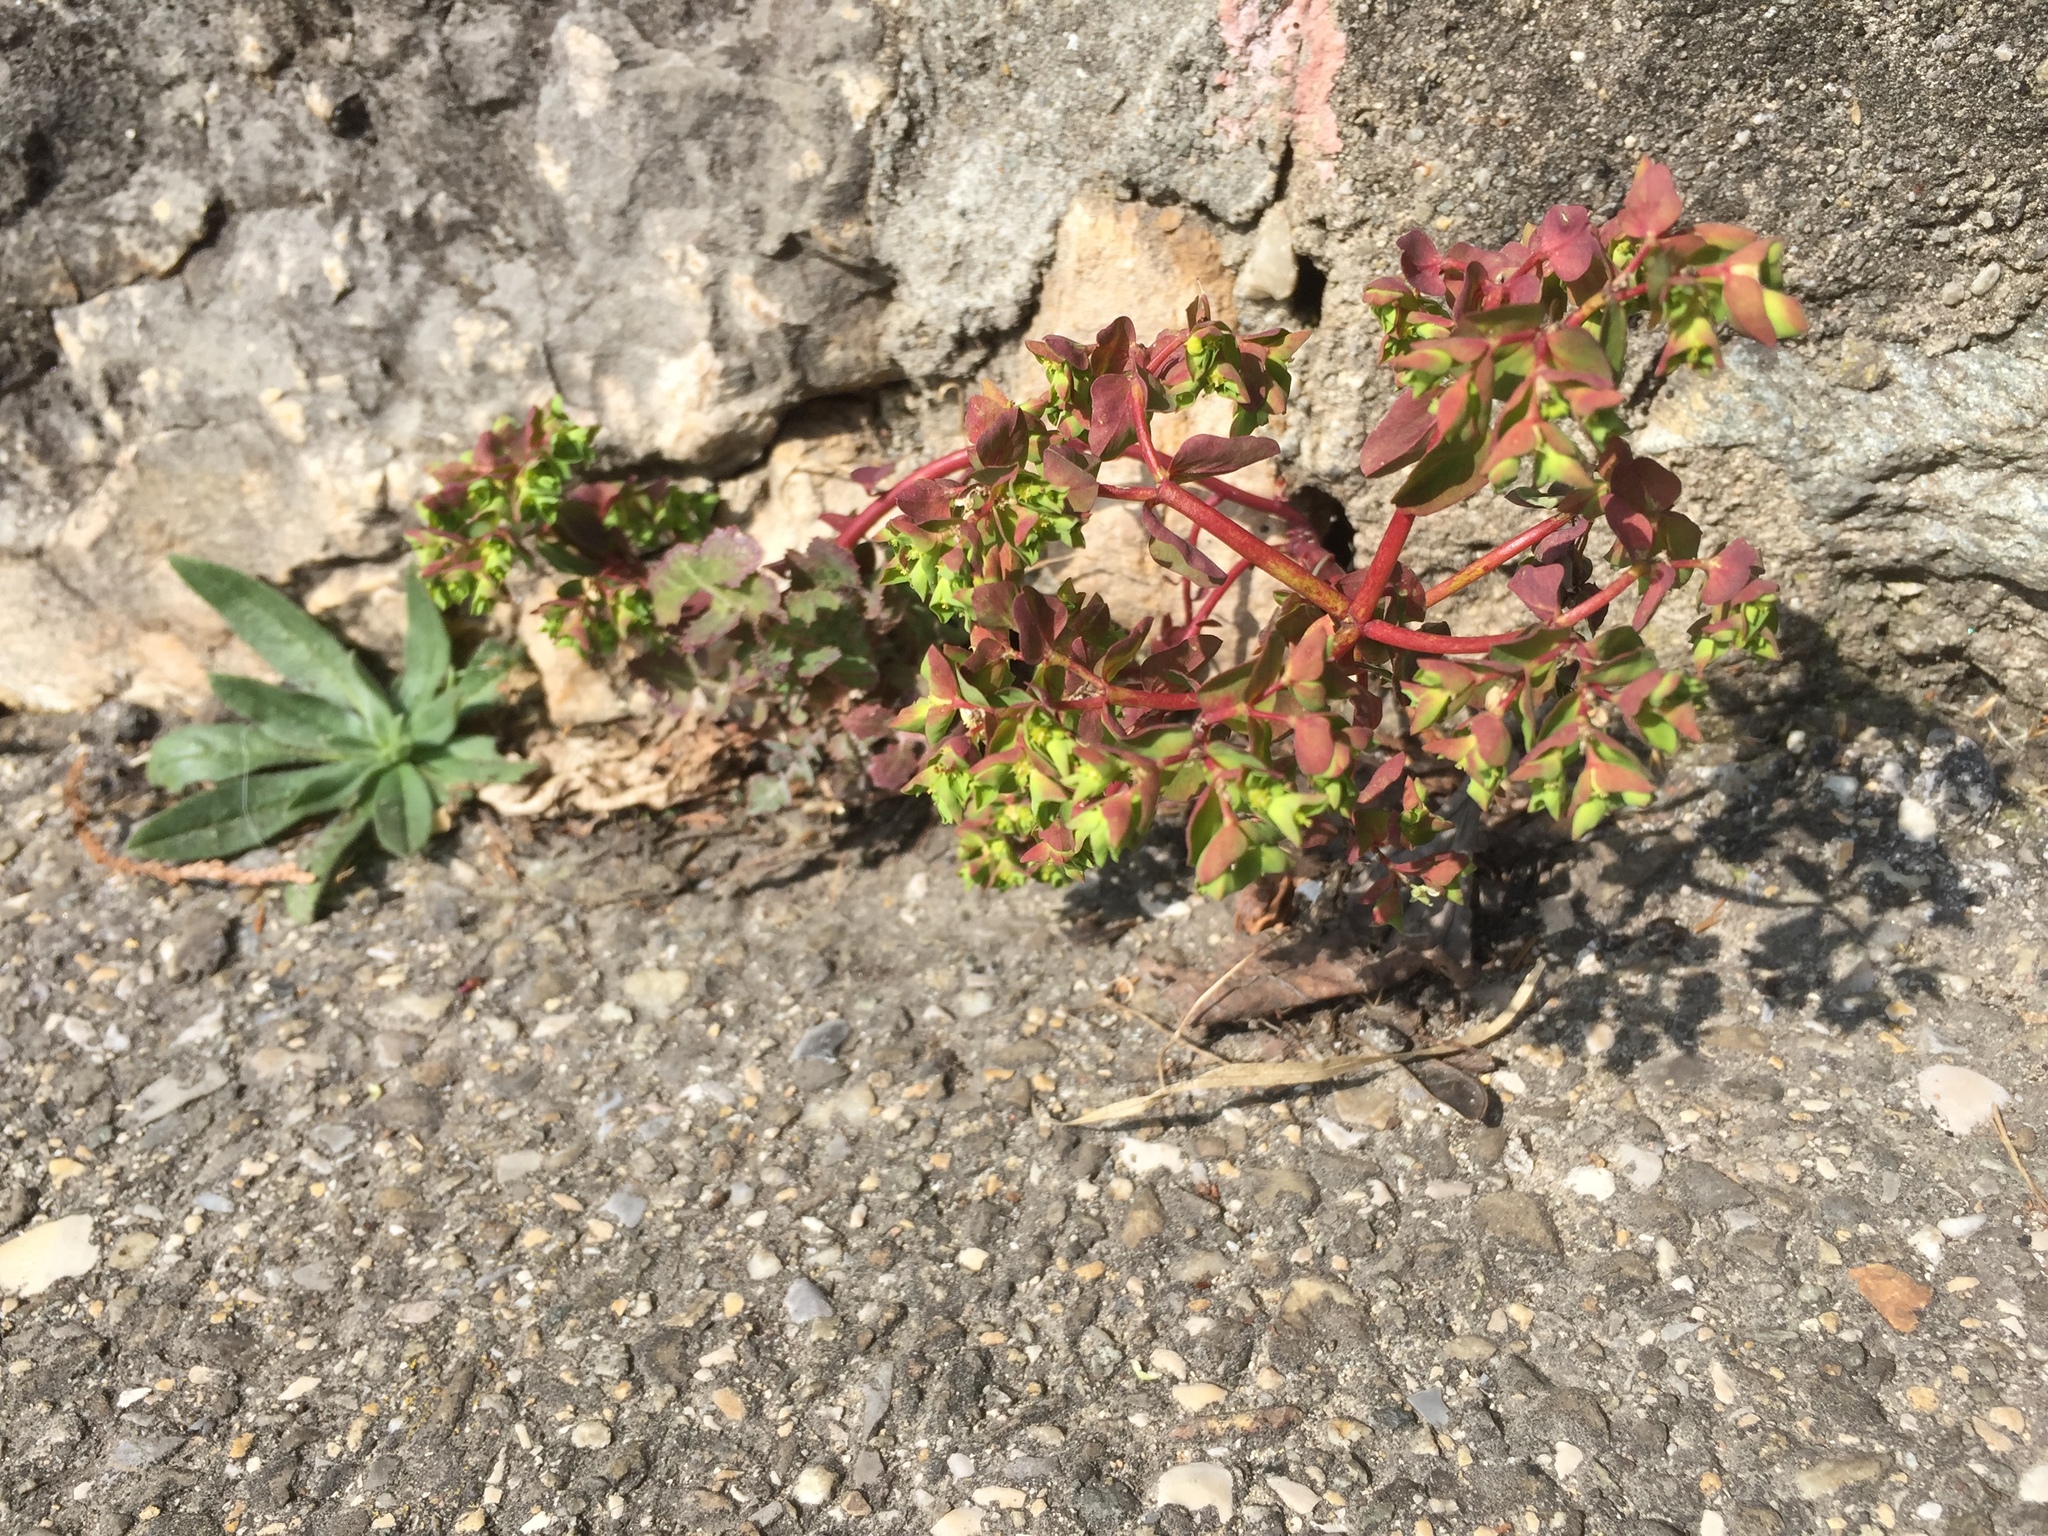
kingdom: Plantae
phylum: Tracheophyta
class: Magnoliopsida
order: Malpighiales
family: Euphorbiaceae
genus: Euphorbia
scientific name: Euphorbia peplus
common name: Petty spurge
